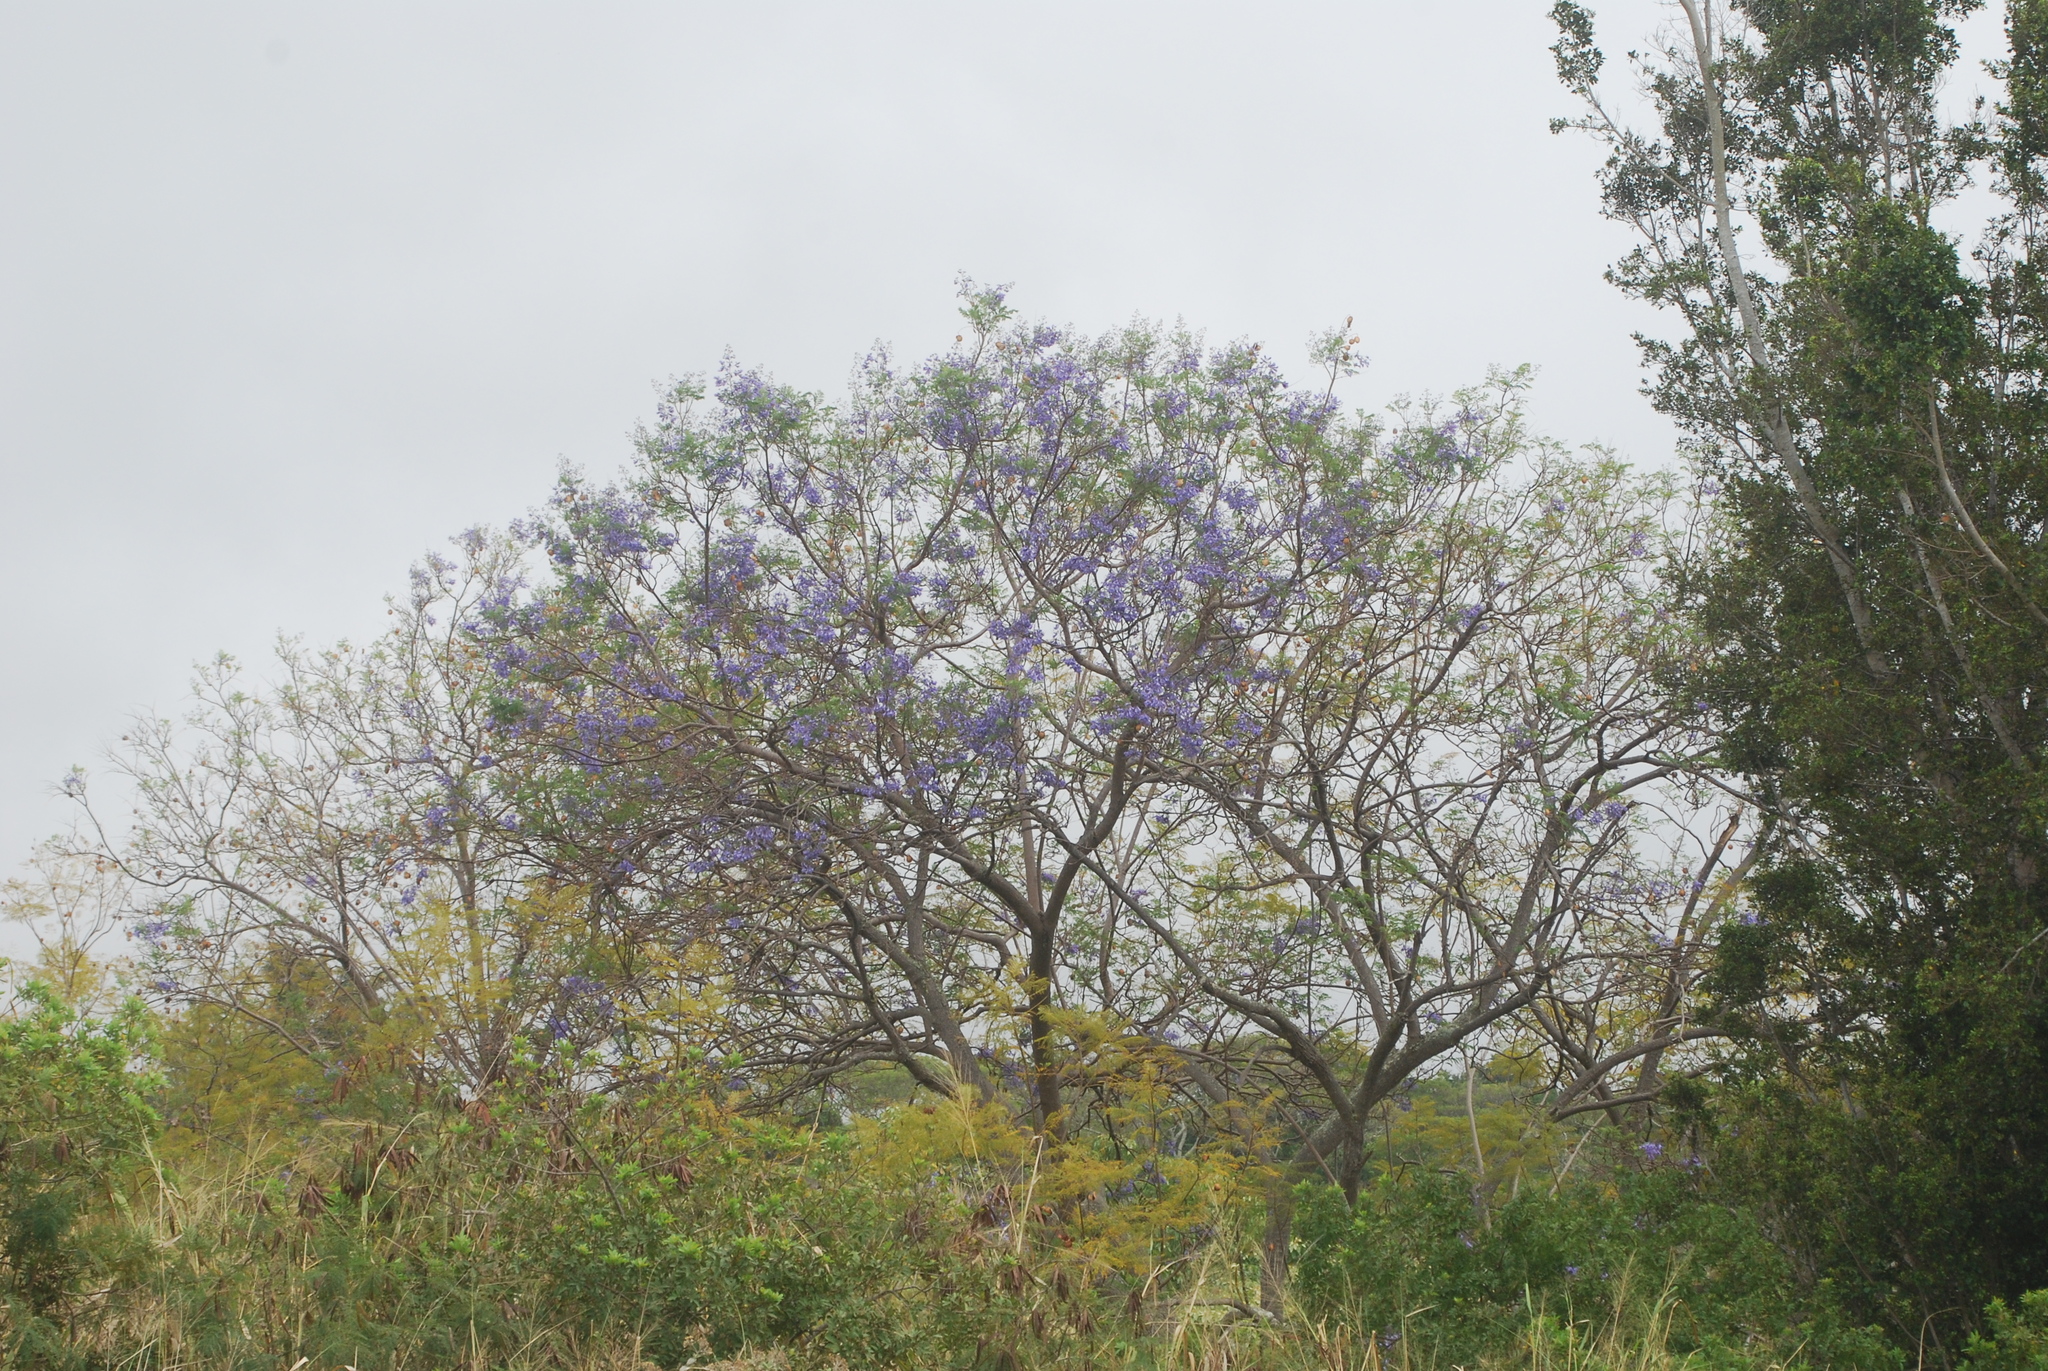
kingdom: Plantae
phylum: Tracheophyta
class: Magnoliopsida
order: Lamiales
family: Bignoniaceae
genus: Jacaranda
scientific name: Jacaranda mimosifolia
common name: Black poui
